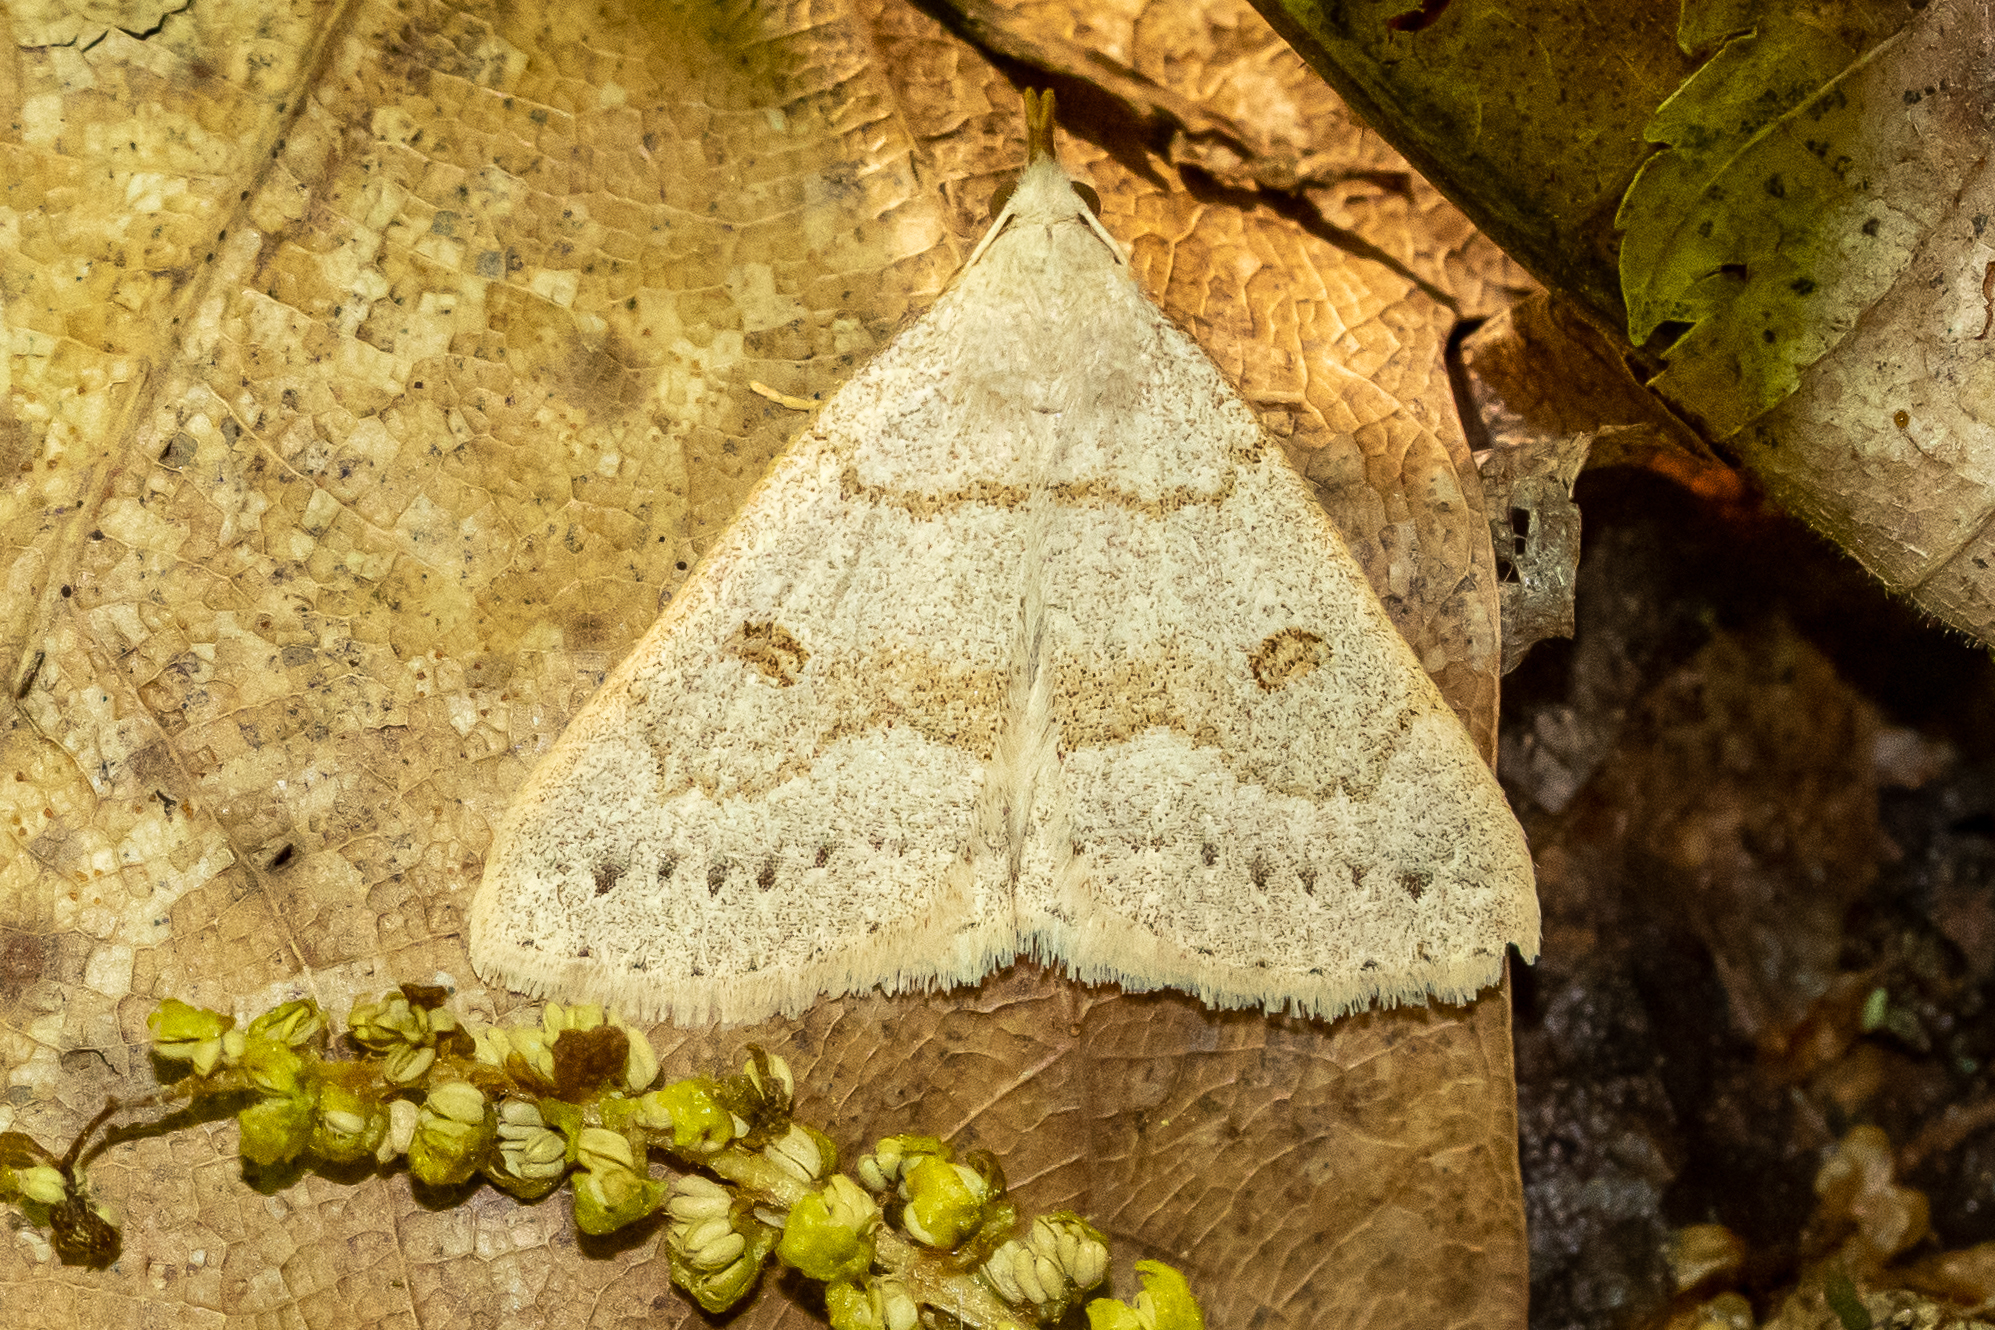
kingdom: Animalia
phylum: Arthropoda
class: Insecta
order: Lepidoptera
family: Erebidae
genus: Macrochilo
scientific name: Macrochilo morbidalis
